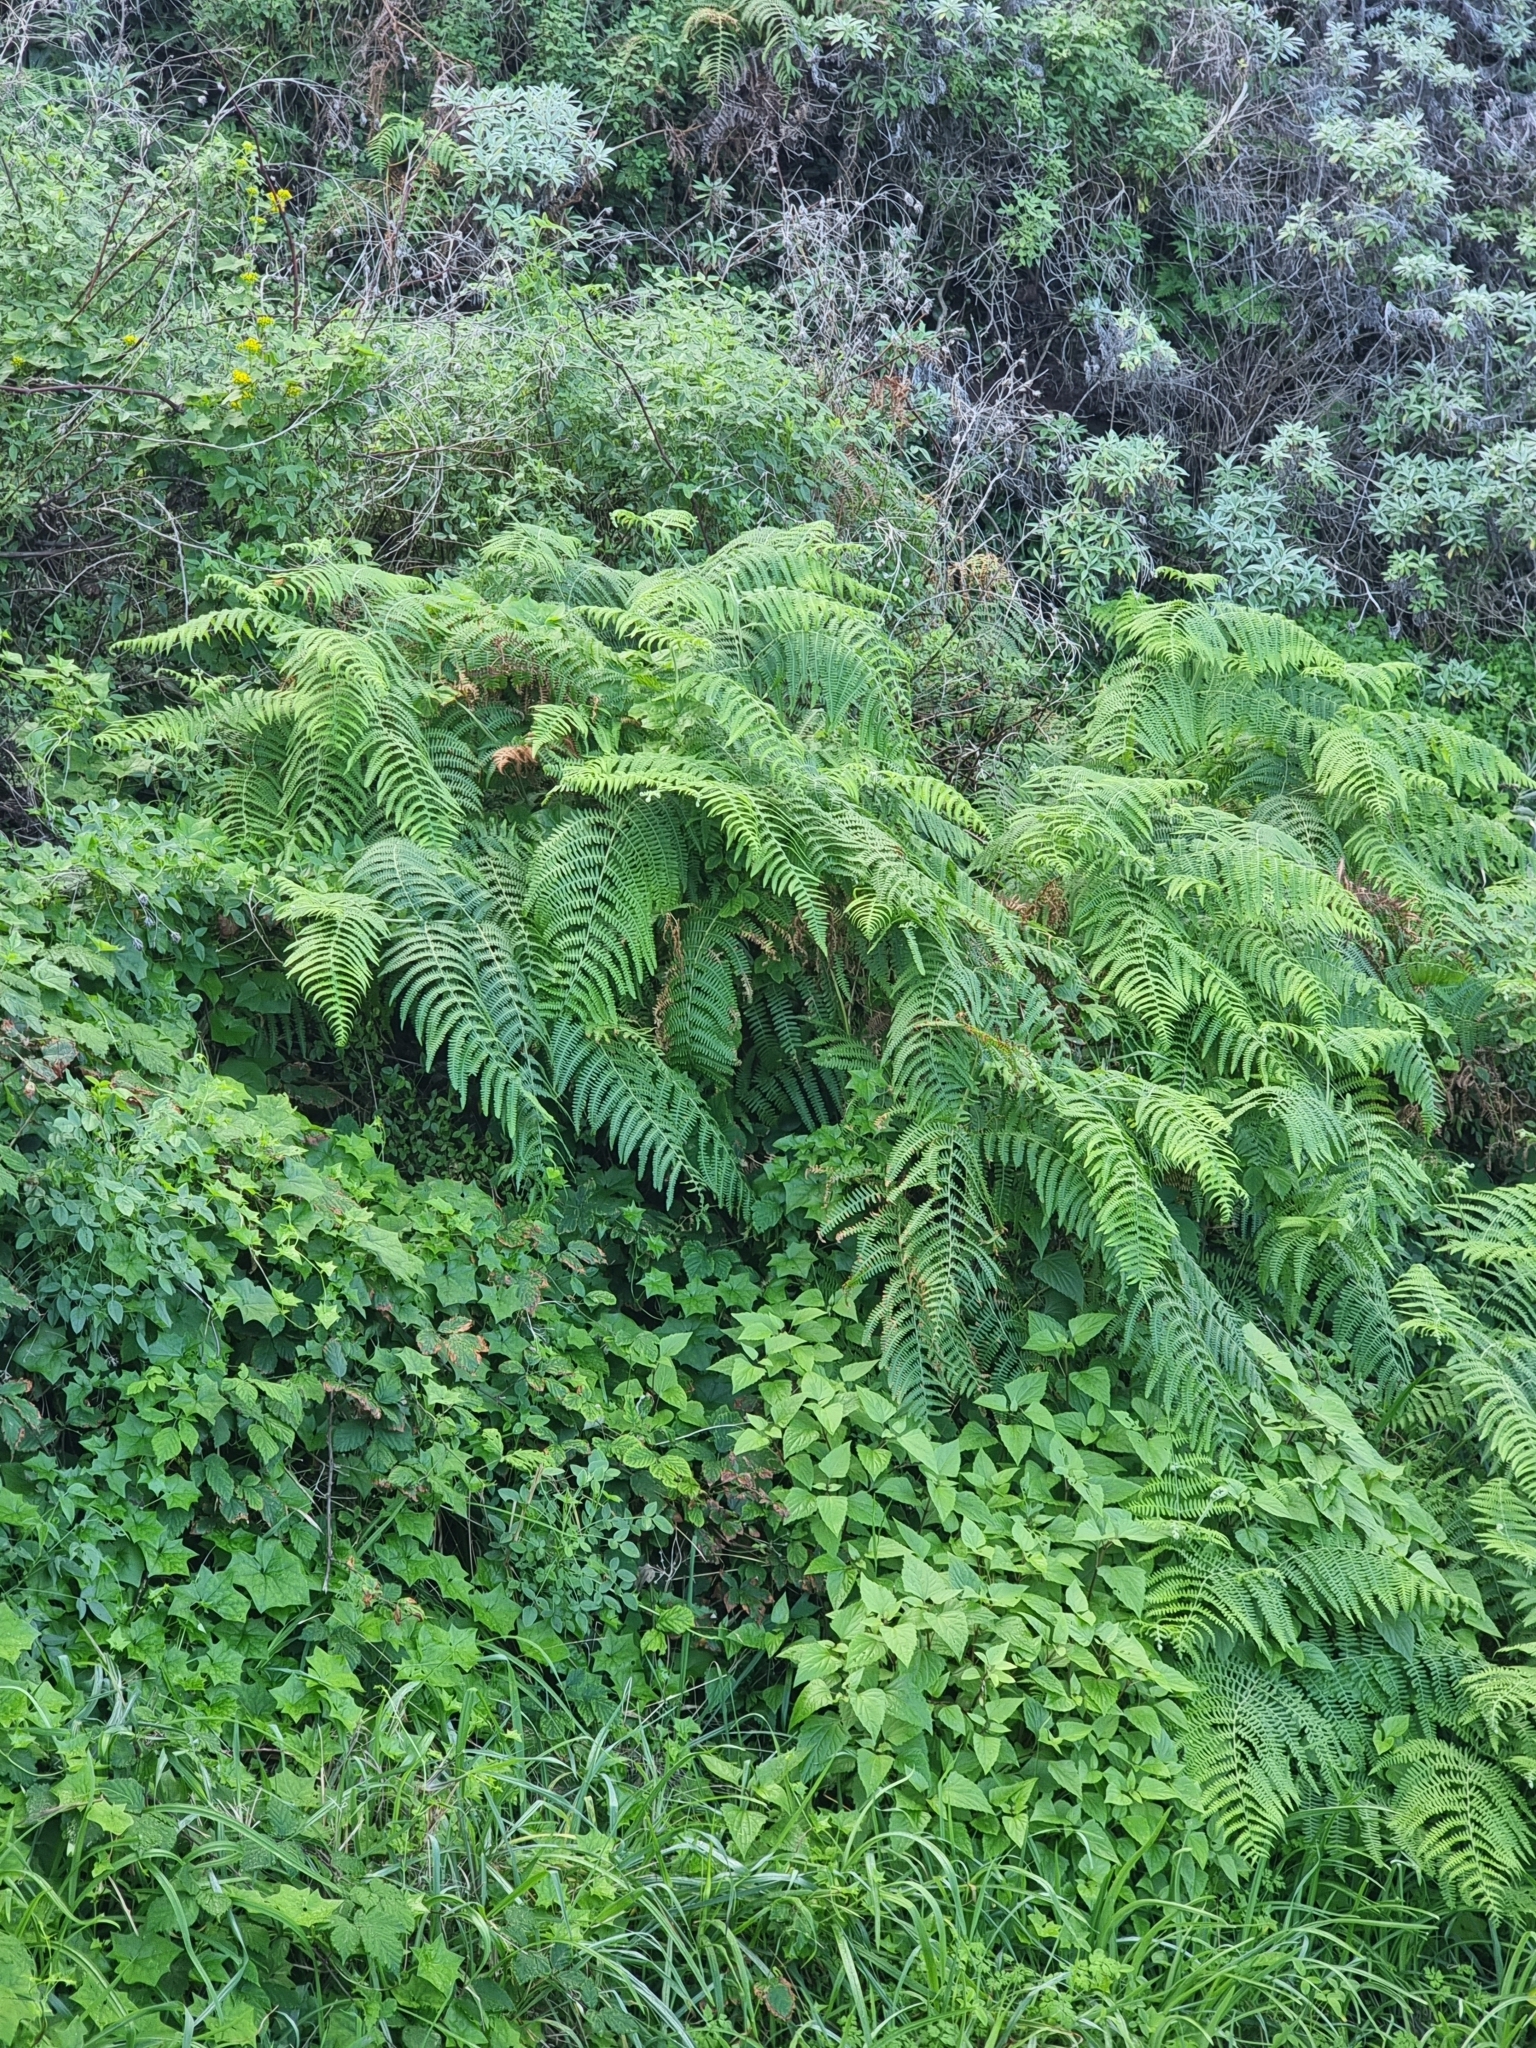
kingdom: Plantae
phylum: Tracheophyta
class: Polypodiopsida
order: Polypodiales
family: Dennstaedtiaceae
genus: Pteridium
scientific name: Pteridium aquilinum
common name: Bracken
